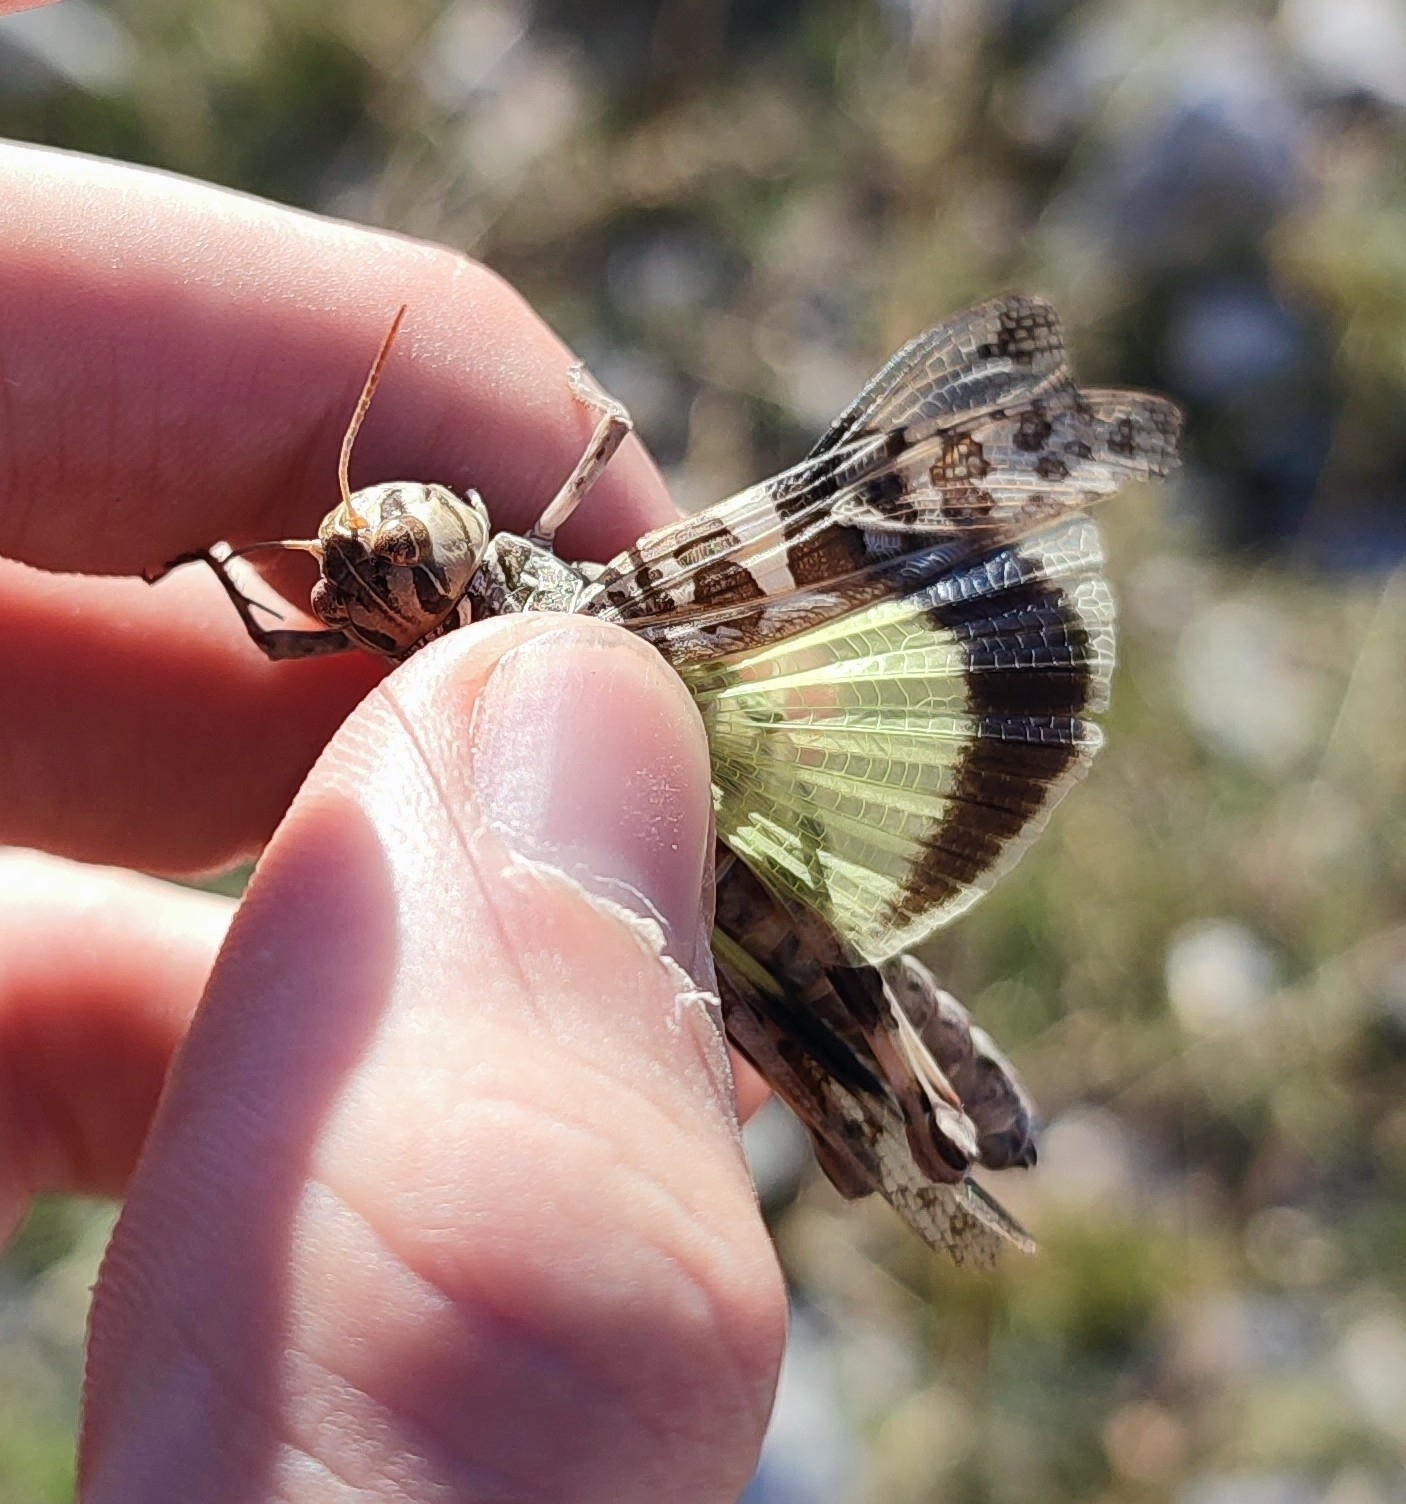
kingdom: Animalia
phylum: Arthropoda
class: Insecta
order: Orthoptera
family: Acrididae
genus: Oedaleus
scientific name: Oedaleus decorus
